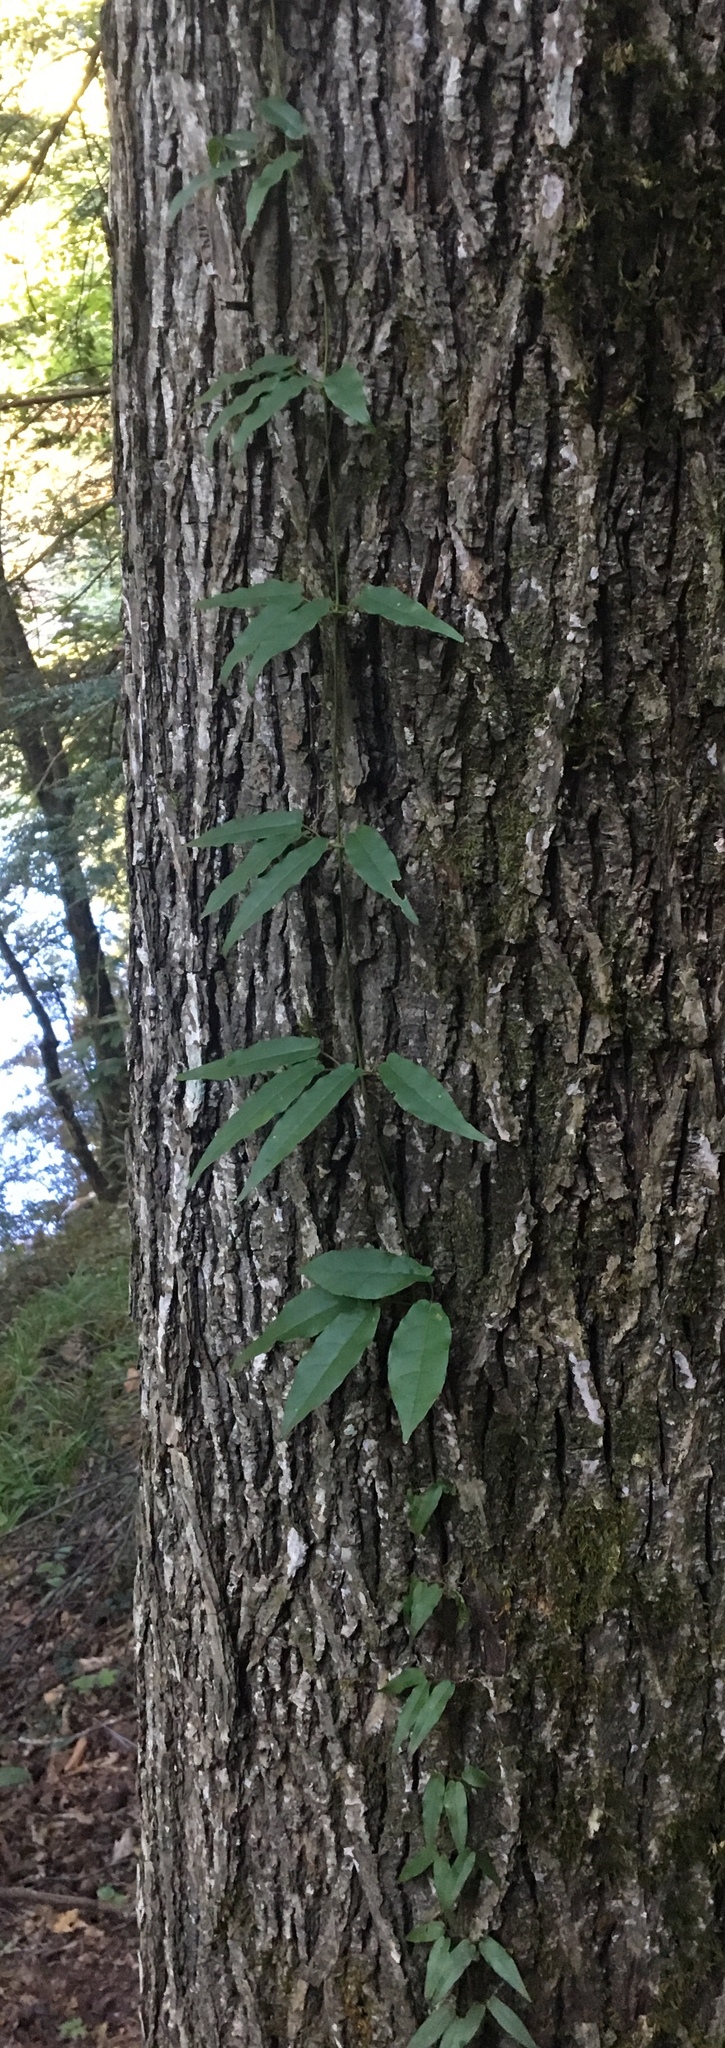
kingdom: Plantae
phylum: Tracheophyta
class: Magnoliopsida
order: Lamiales
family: Bignoniaceae
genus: Bignonia
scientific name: Bignonia capreolata
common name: Crossvine
